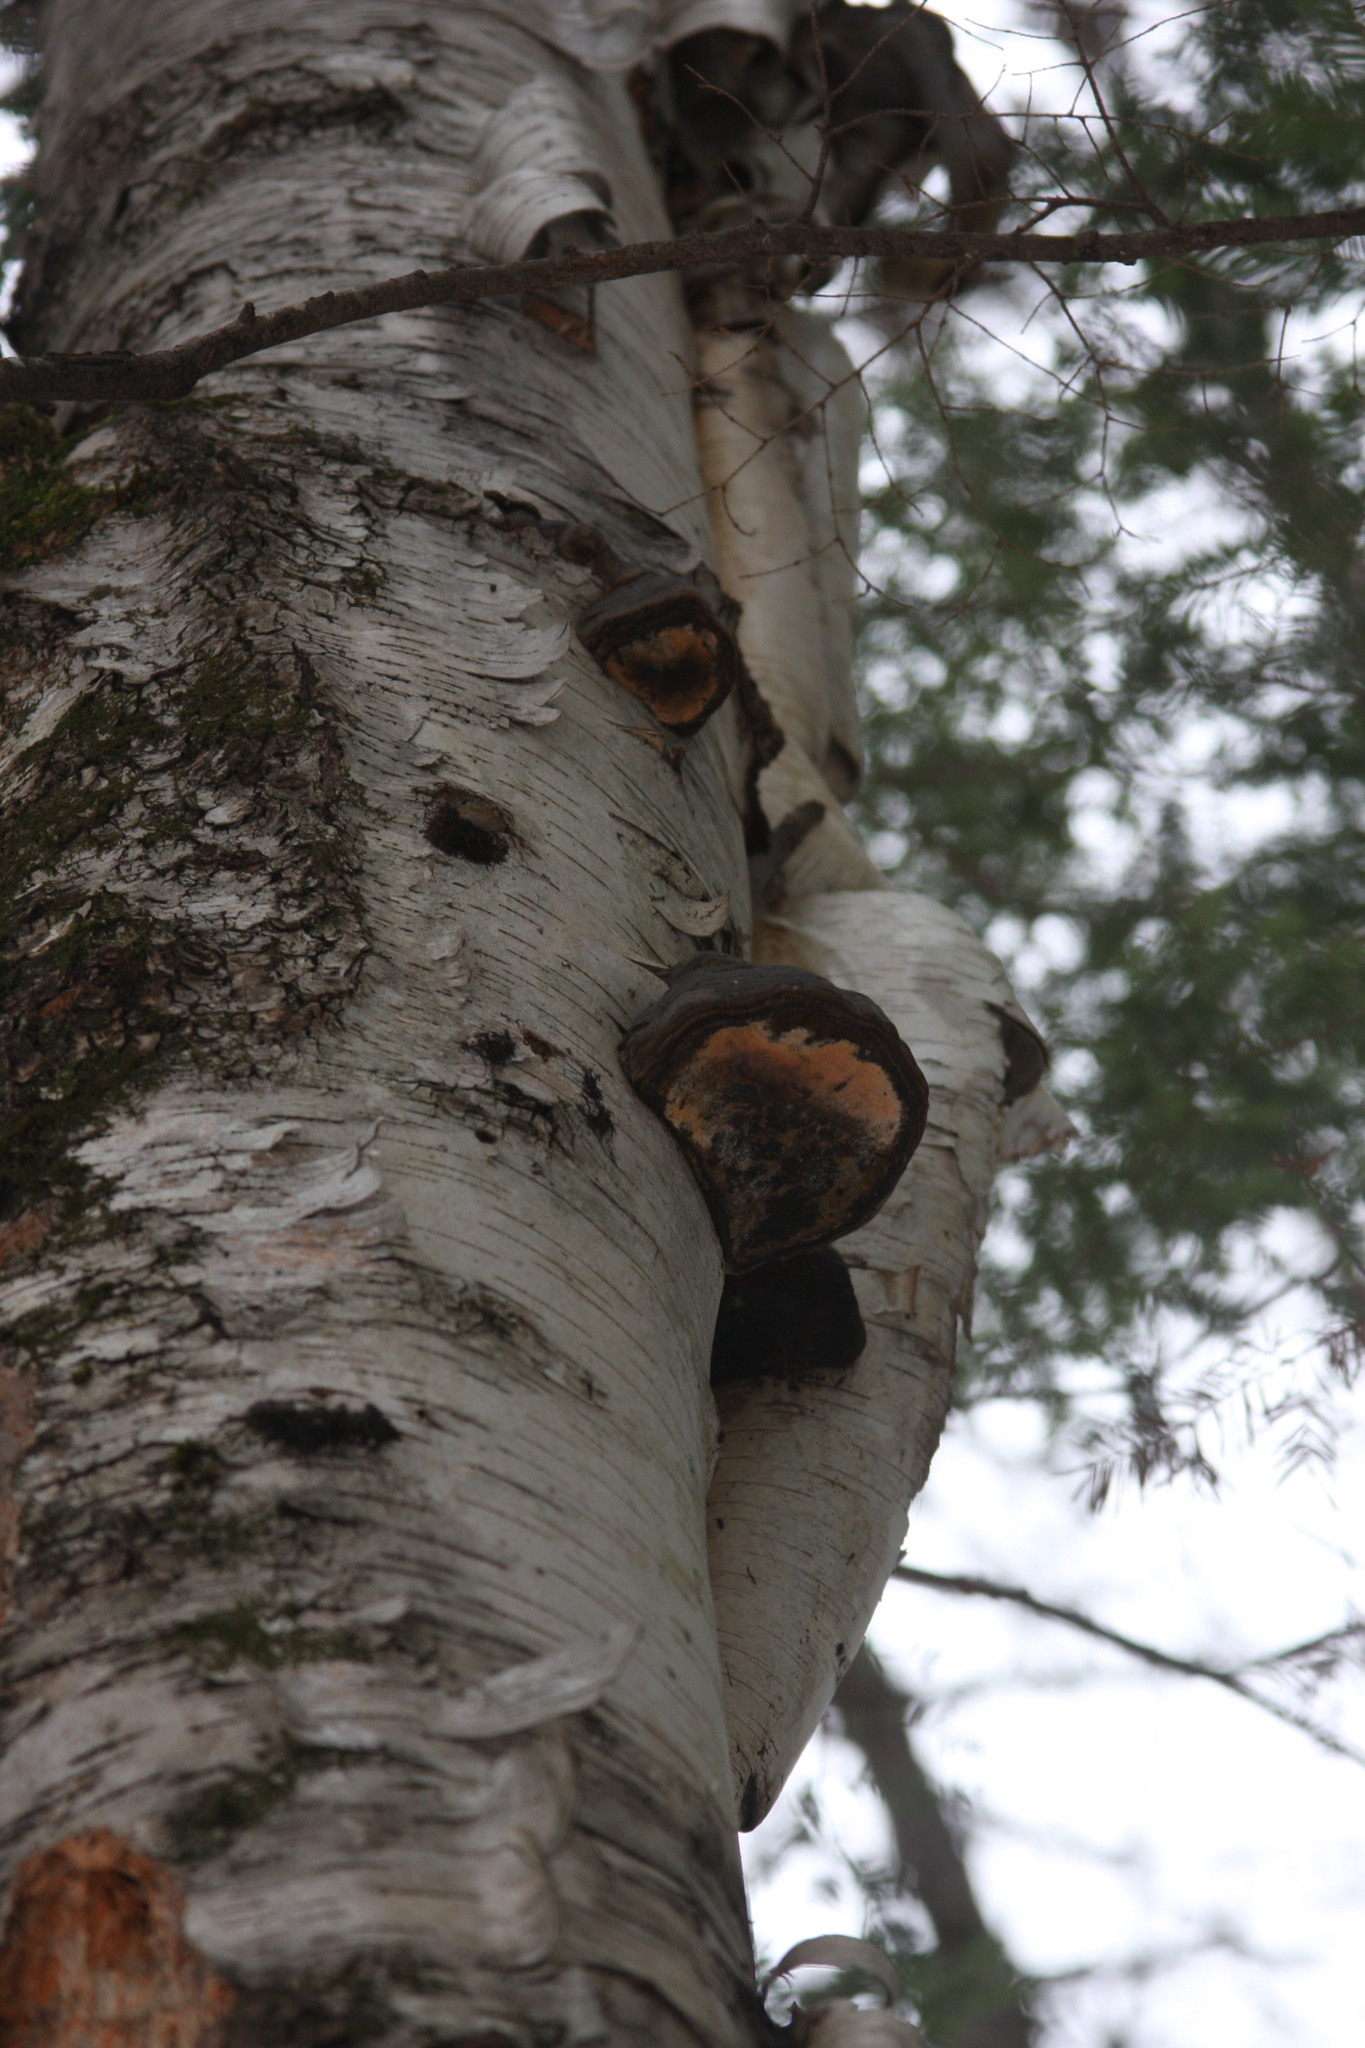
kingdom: Fungi
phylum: Basidiomycota
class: Agaricomycetes
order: Polyporales
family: Polyporaceae
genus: Fomes
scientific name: Fomes fomentarius
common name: Hoof fungus
